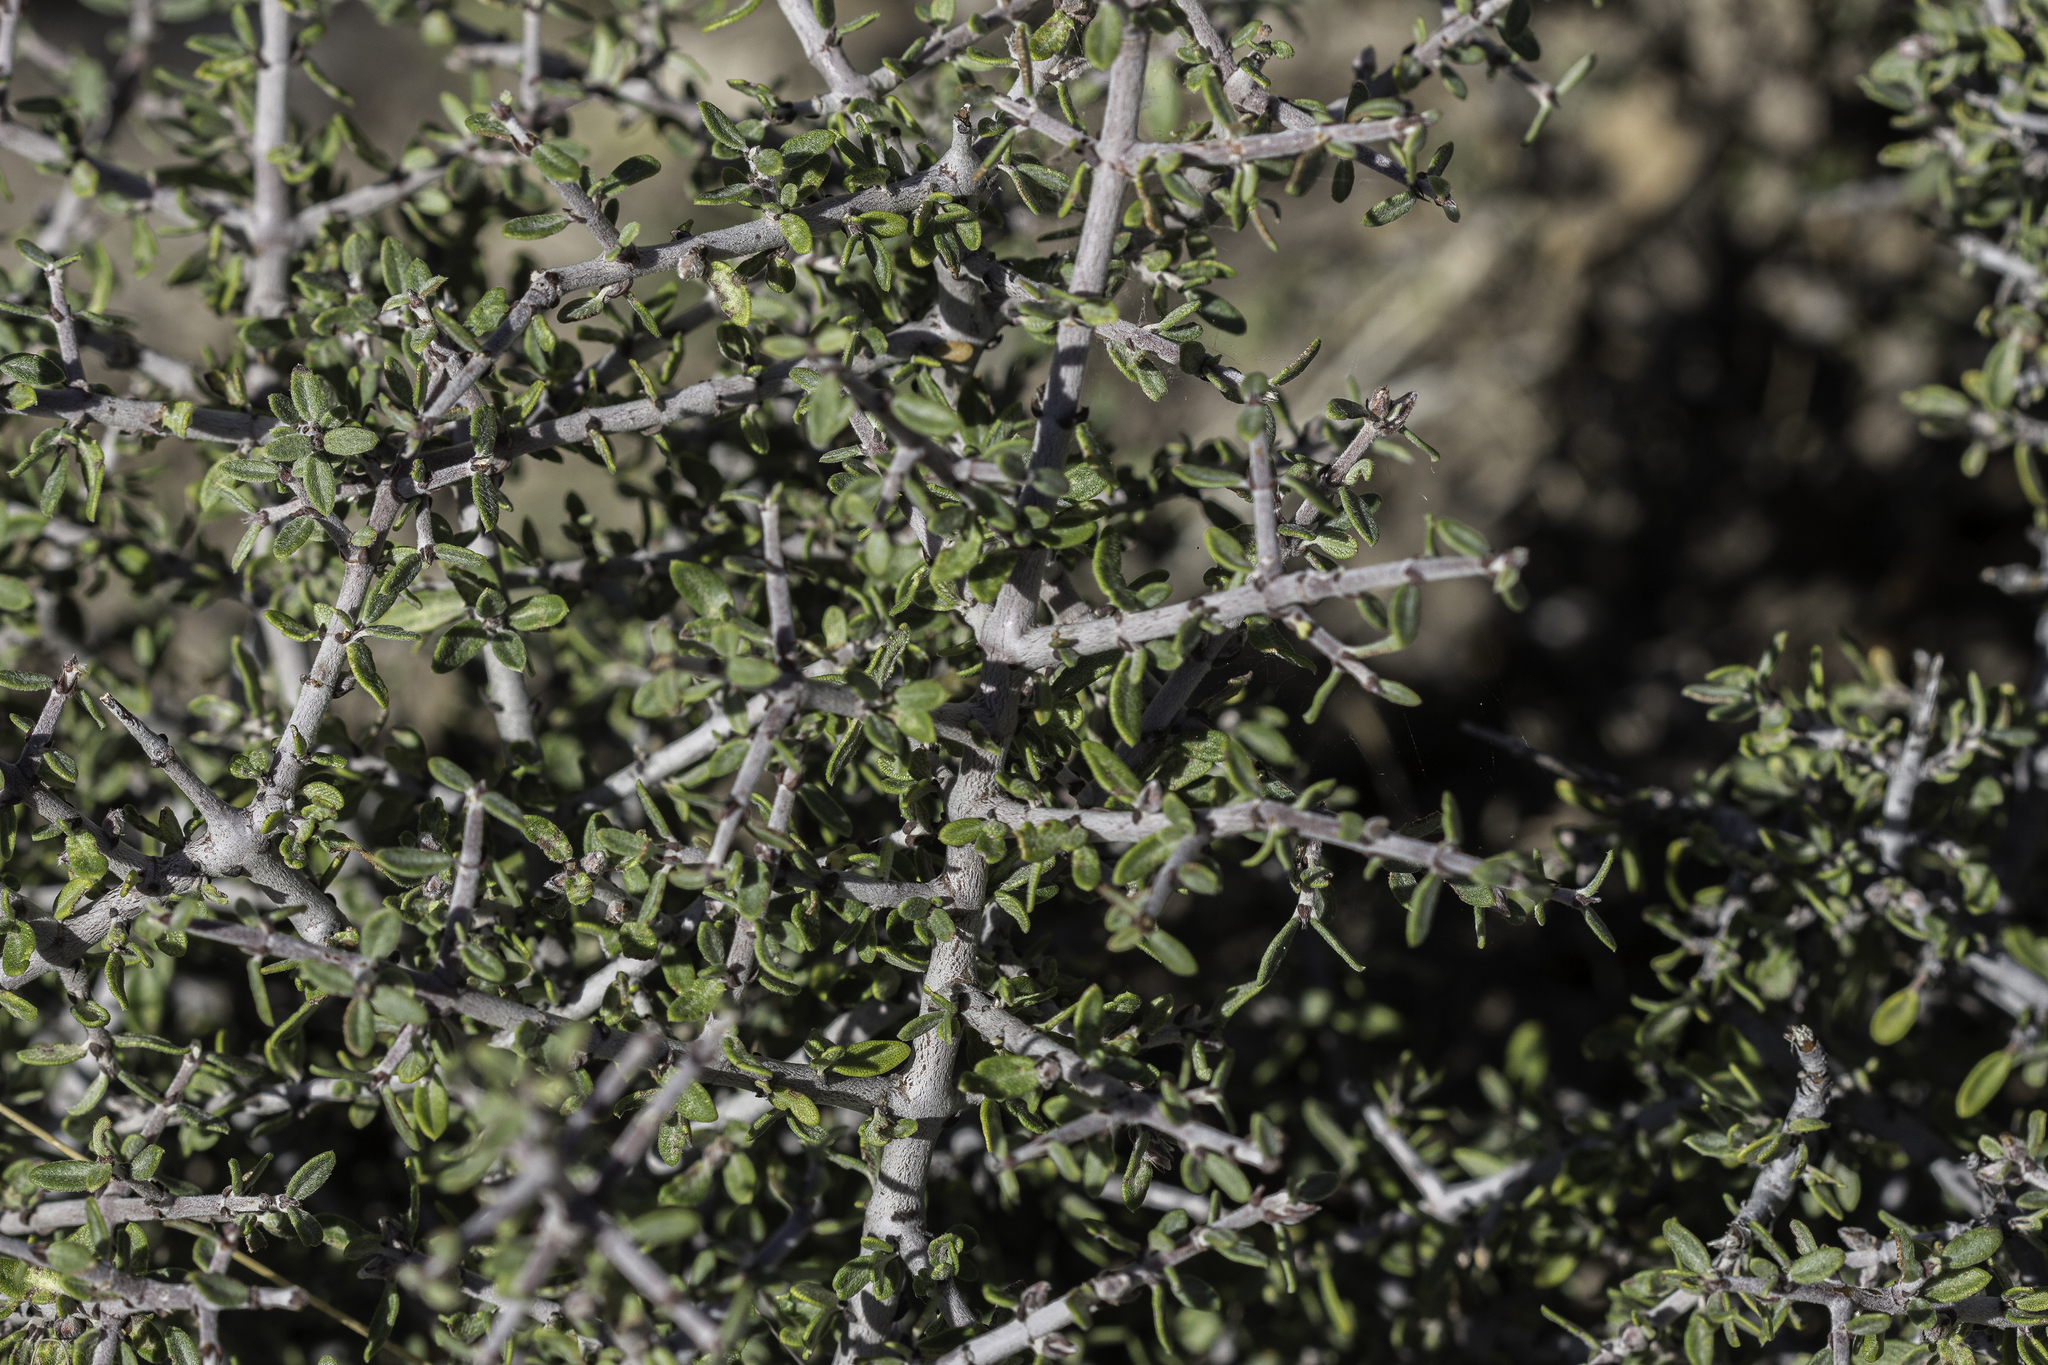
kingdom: Plantae
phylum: Tracheophyta
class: Magnoliopsida
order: Rosales
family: Rhamnaceae
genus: Ceanothus
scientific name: Ceanothus pauciflorus
